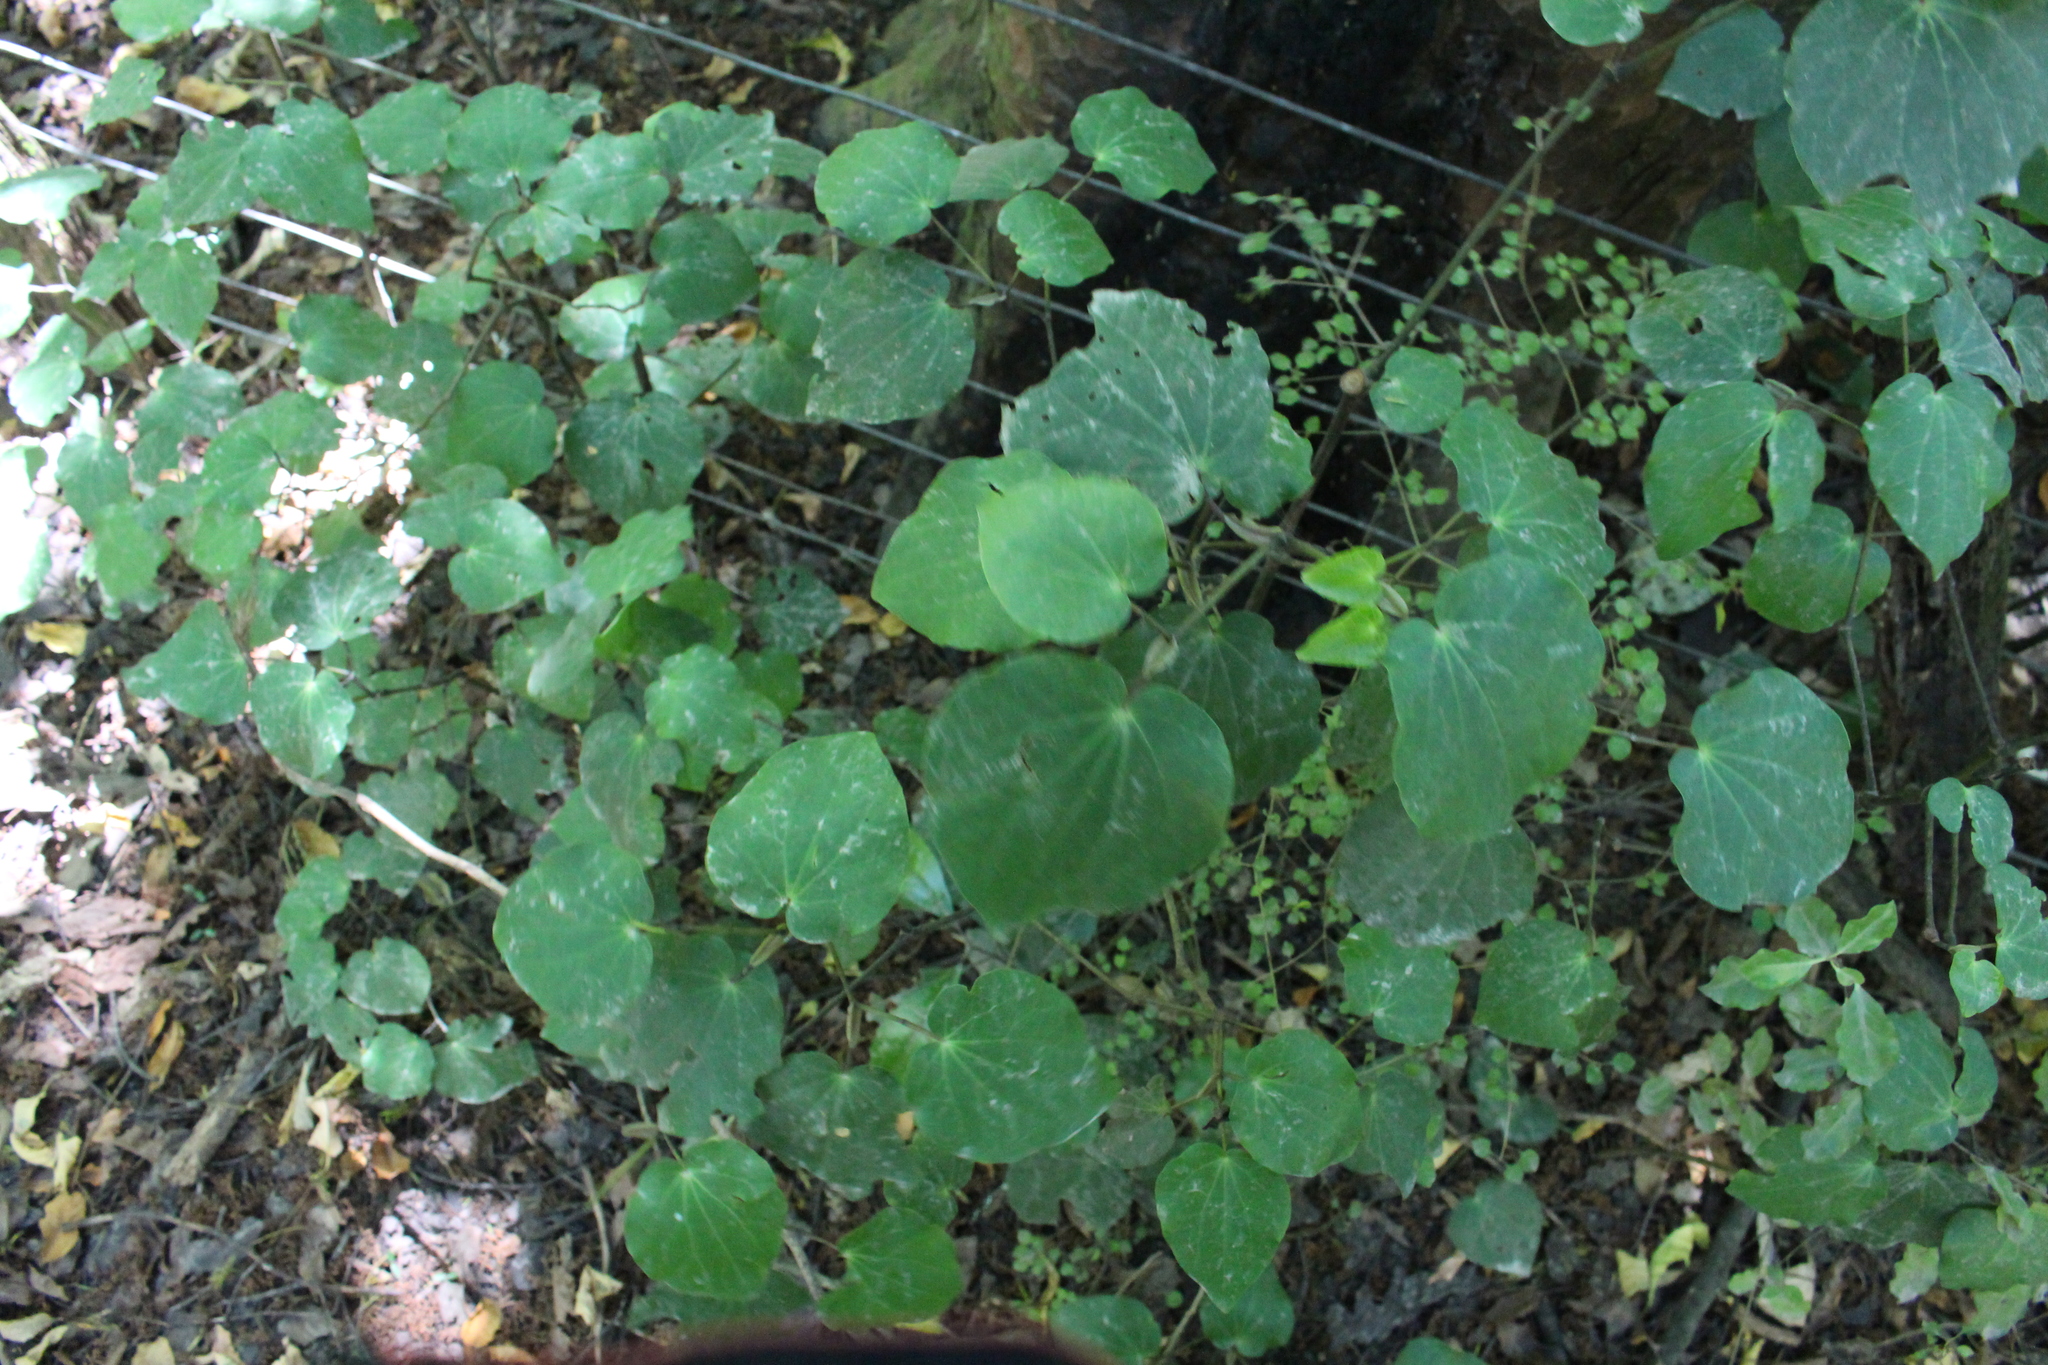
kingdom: Plantae
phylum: Tracheophyta
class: Magnoliopsida
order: Piperales
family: Piperaceae
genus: Macropiper
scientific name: Macropiper excelsum
